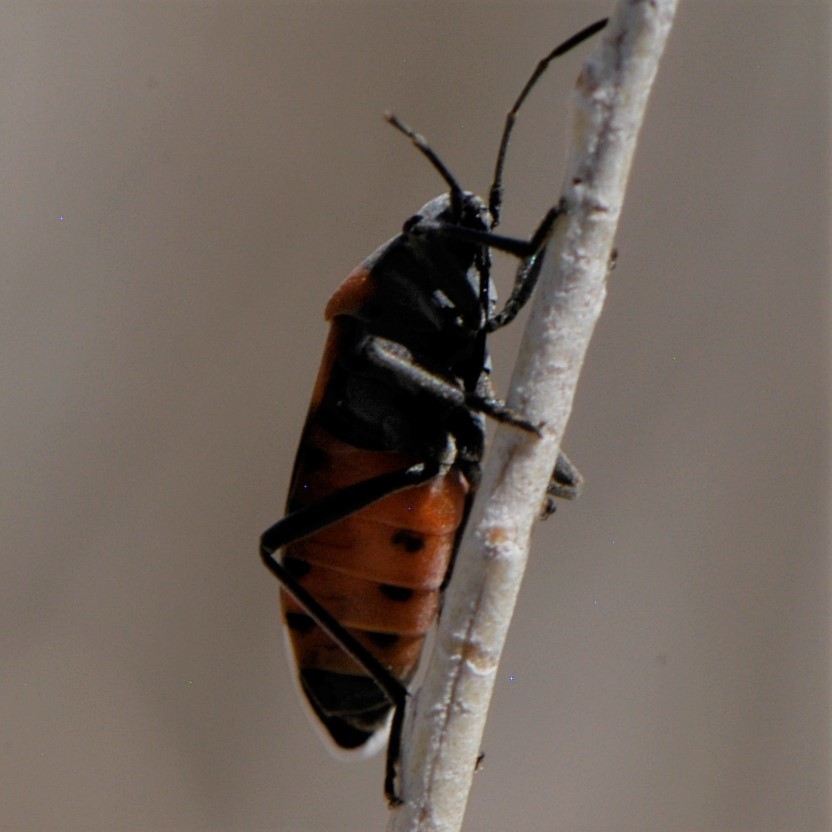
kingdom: Animalia
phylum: Arthropoda
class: Insecta
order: Hemiptera
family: Lygaeidae
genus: Lygaeus
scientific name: Lygaeus kalmii
